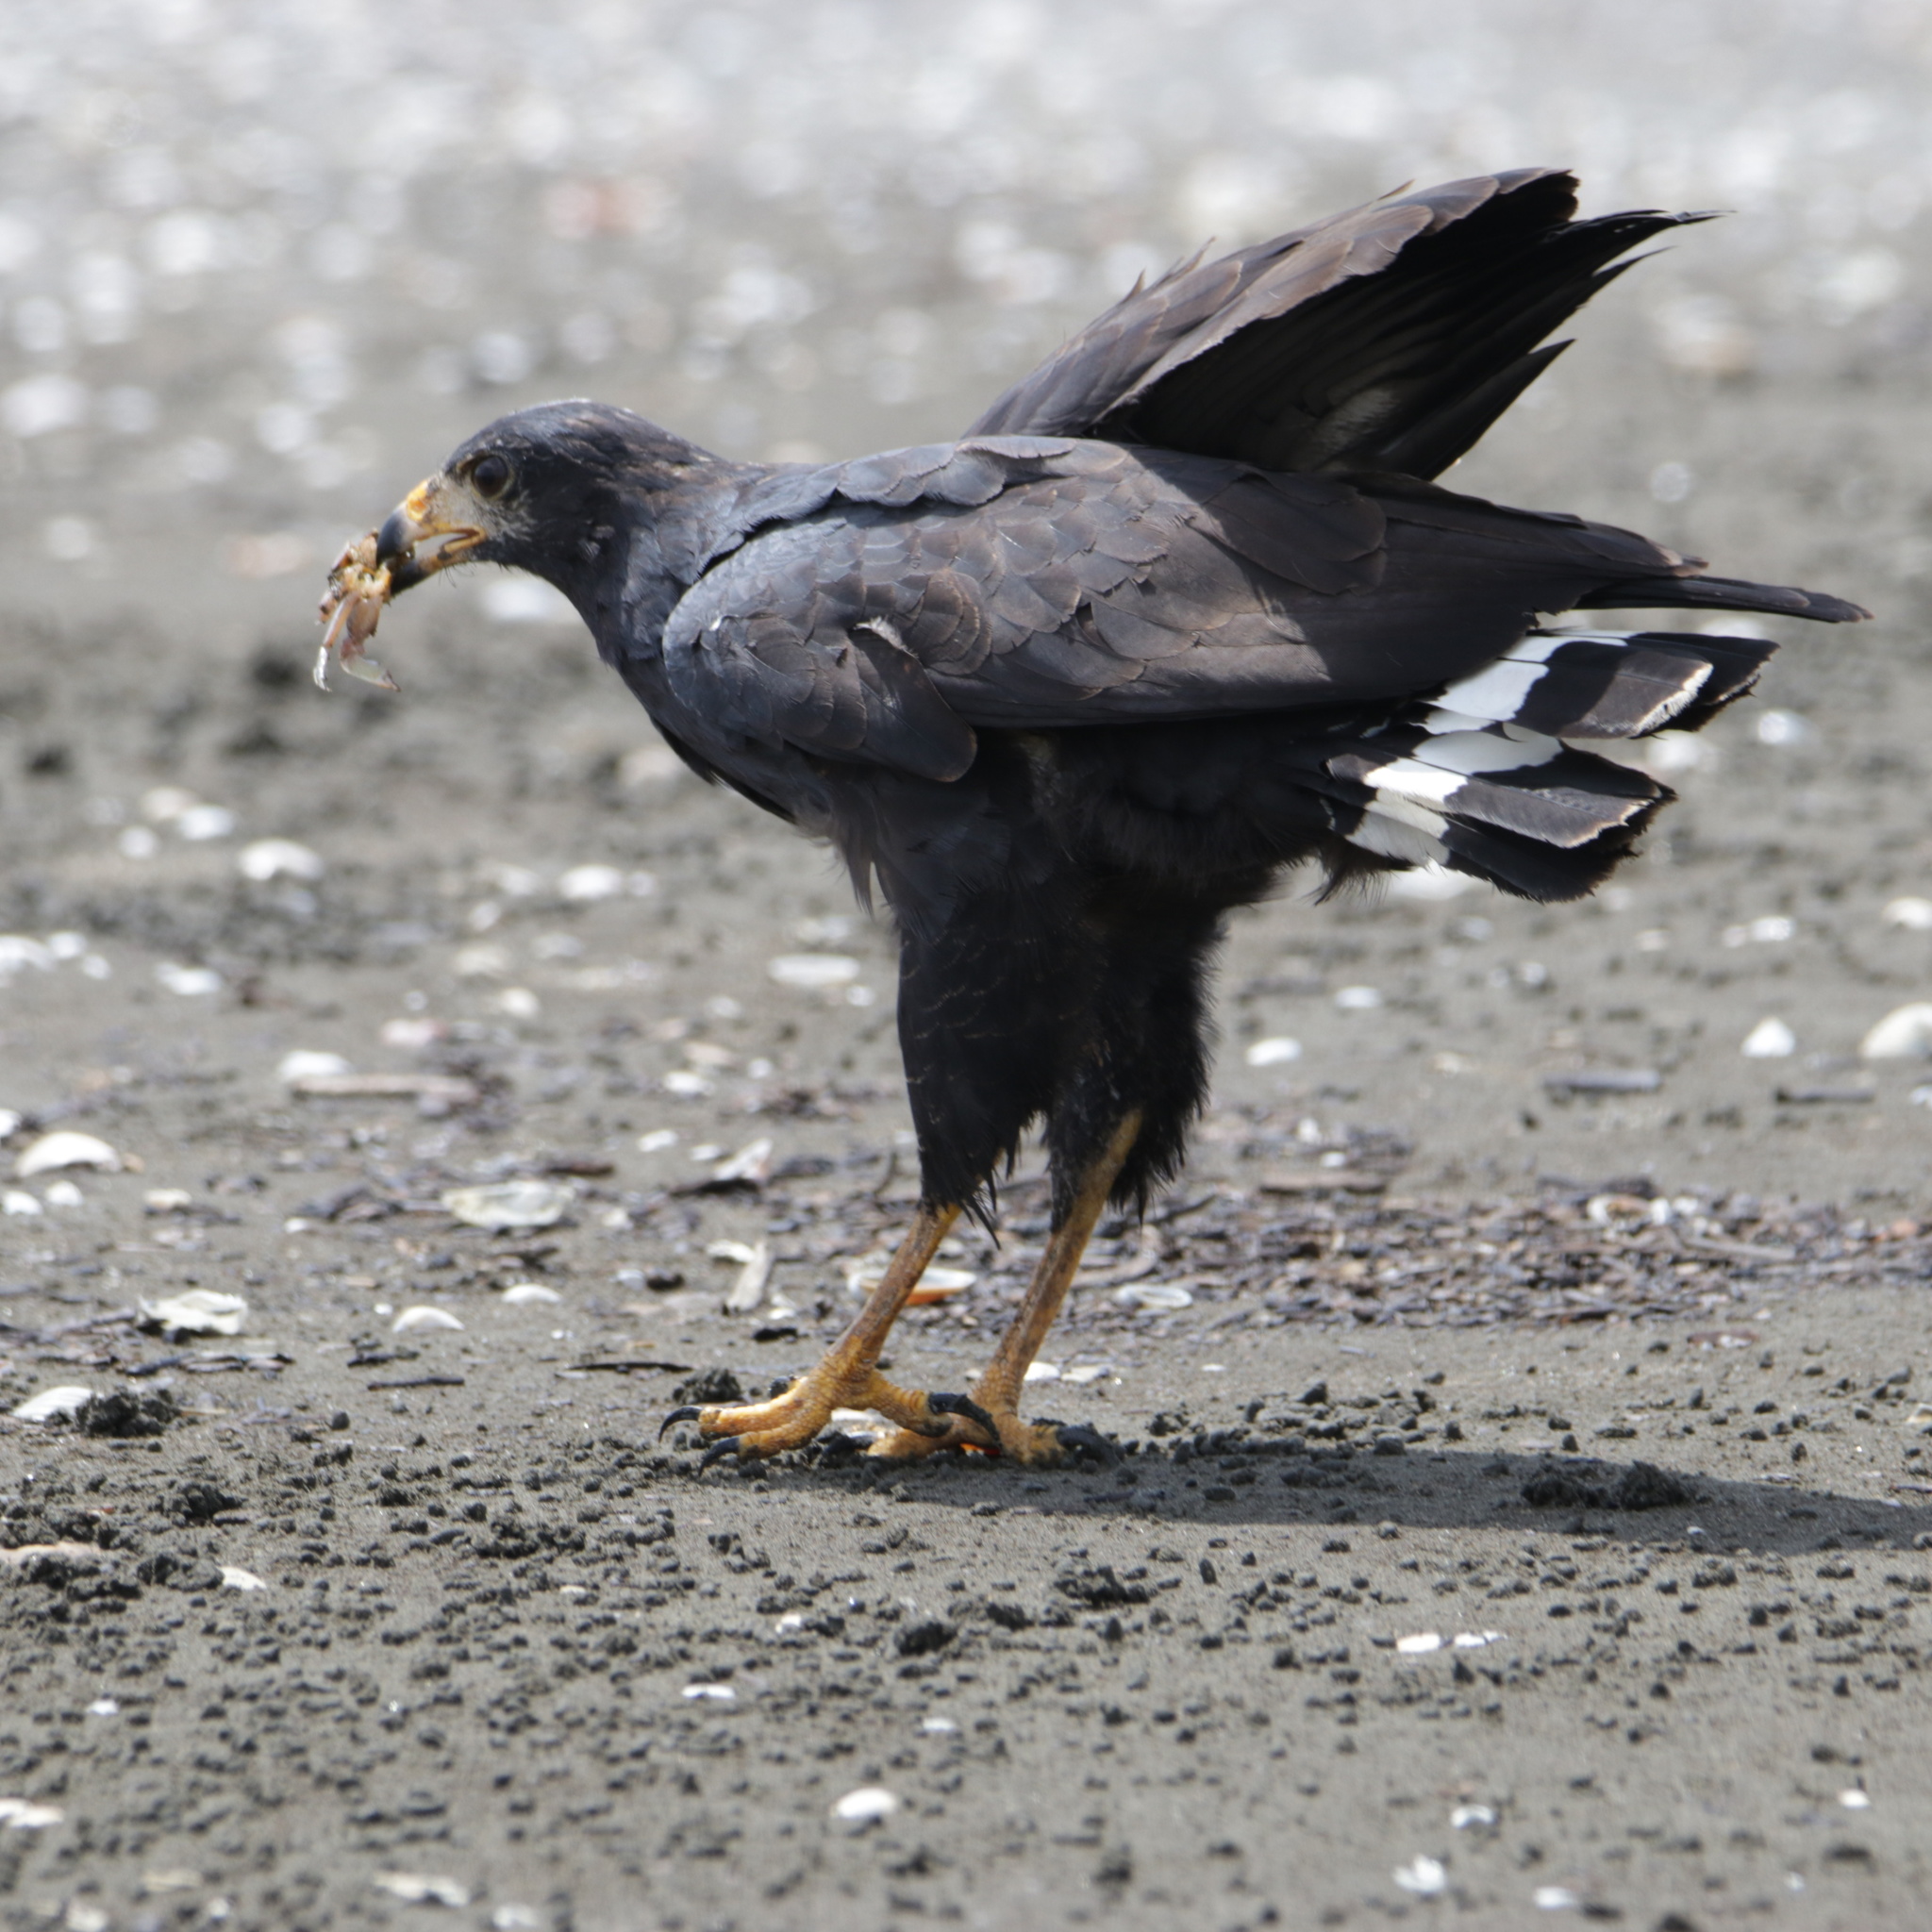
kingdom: Animalia
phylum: Chordata
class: Aves
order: Accipitriformes
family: Accipitridae
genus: Buteogallus
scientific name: Buteogallus anthracinus
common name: Common black hawk
